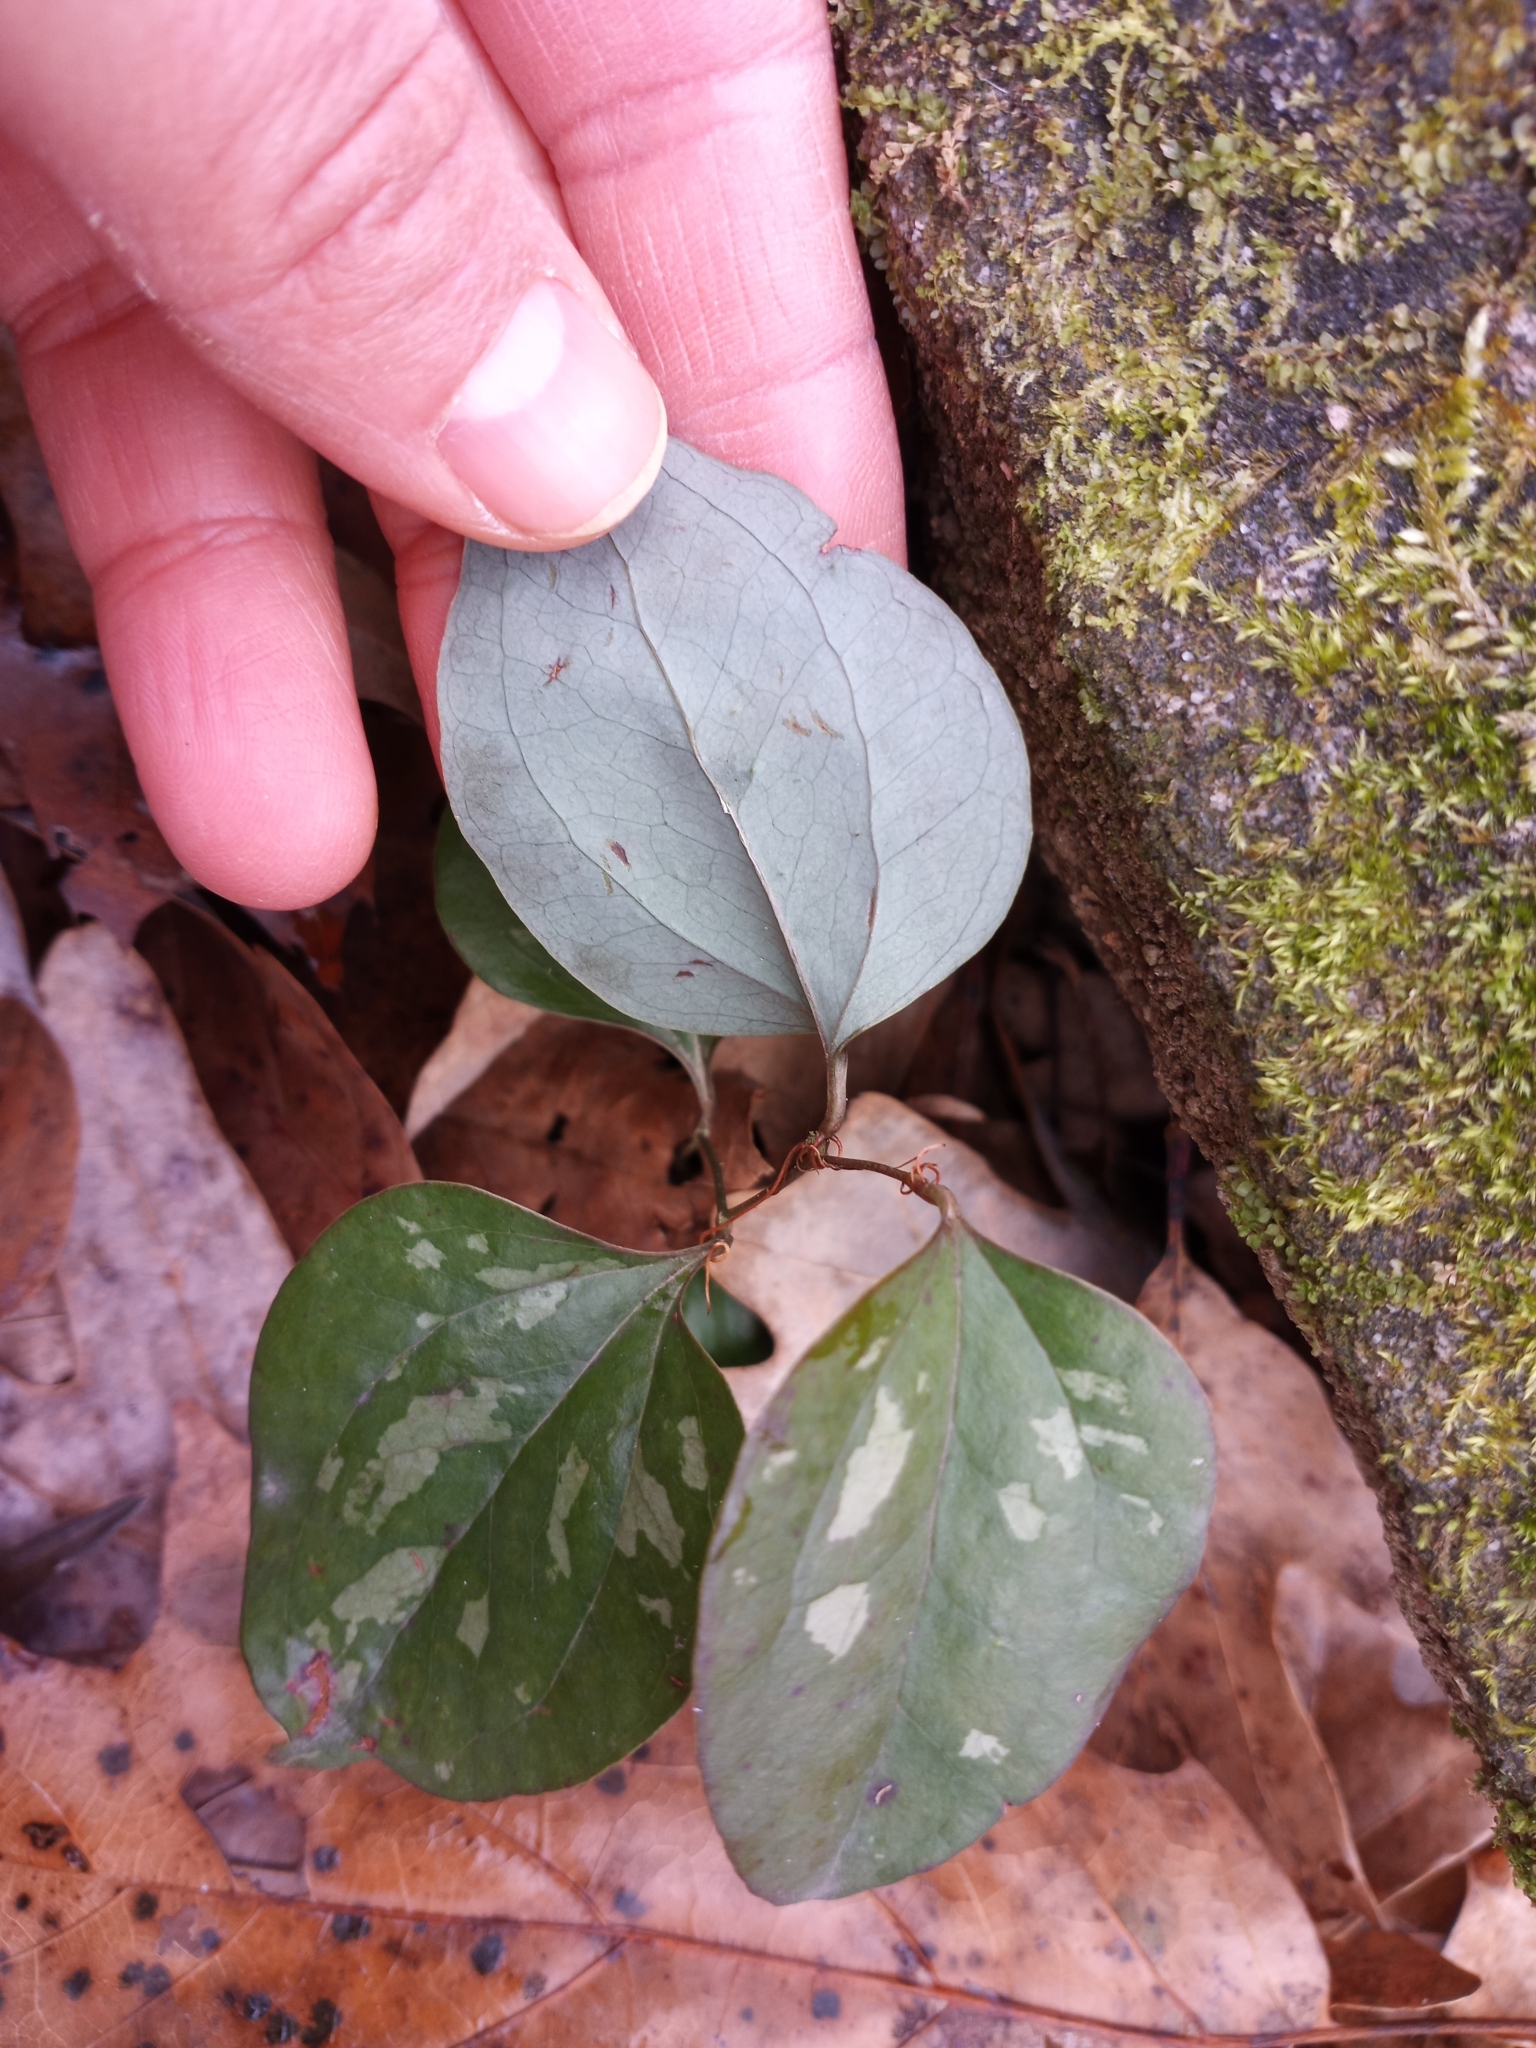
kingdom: Plantae
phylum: Tracheophyta
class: Liliopsida
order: Liliales
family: Smilacaceae
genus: Smilax
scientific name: Smilax glauca
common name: Cat greenbrier
